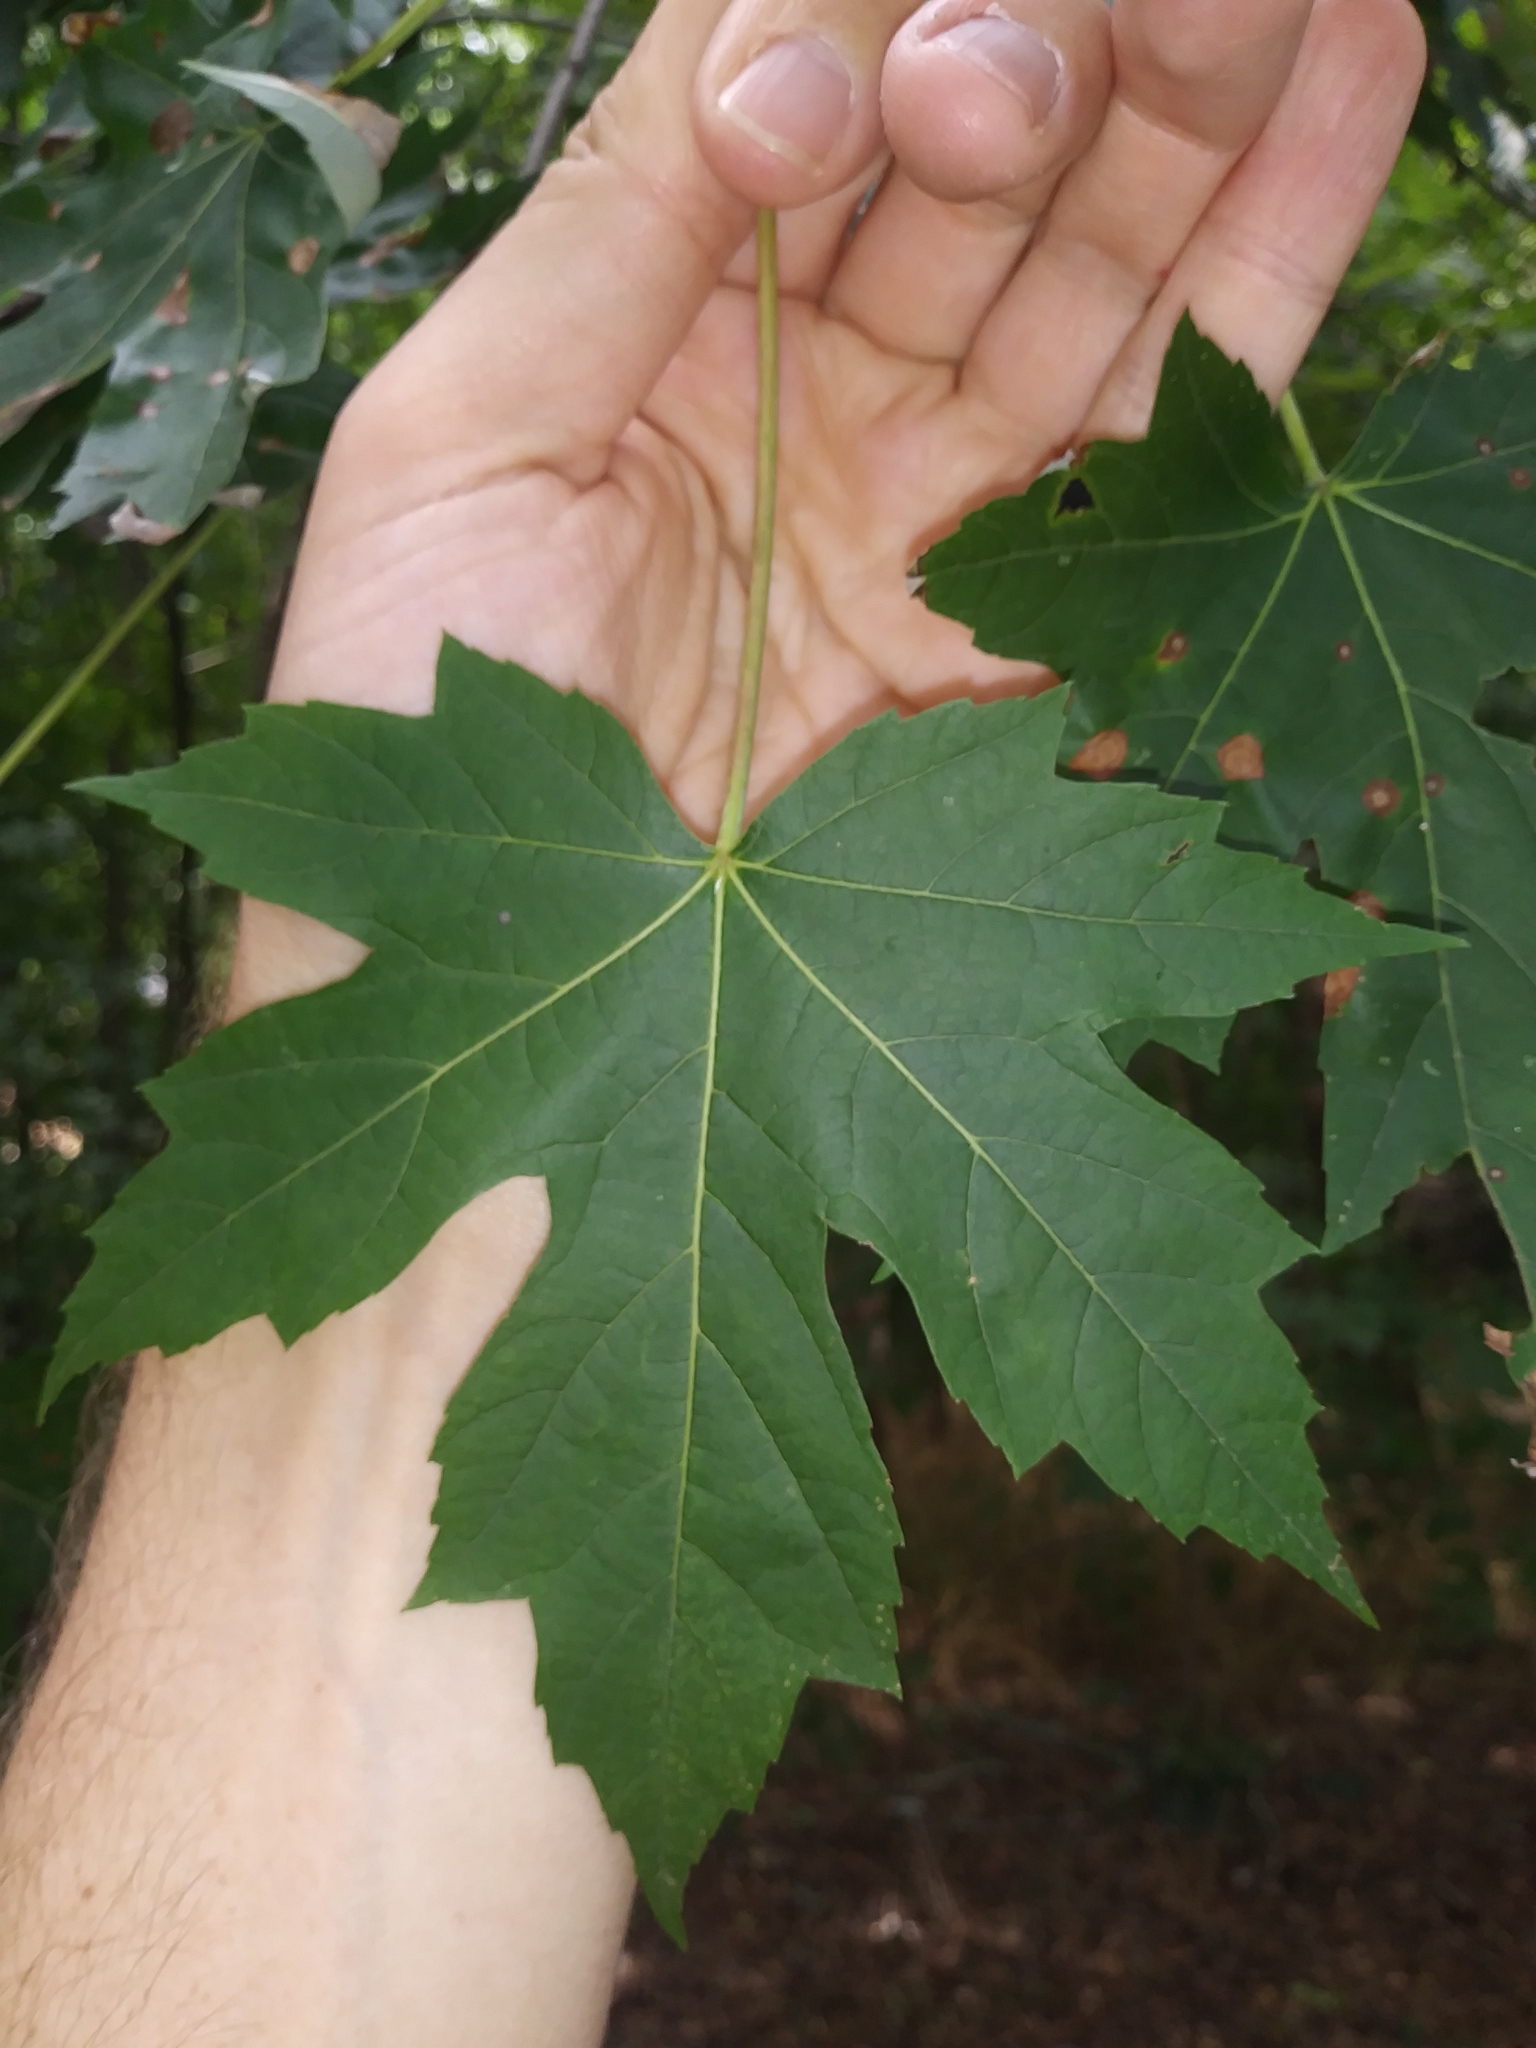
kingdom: Plantae
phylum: Tracheophyta
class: Magnoliopsida
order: Sapindales
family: Sapindaceae
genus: Acer
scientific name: Acer saccharinum
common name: Silver maple
